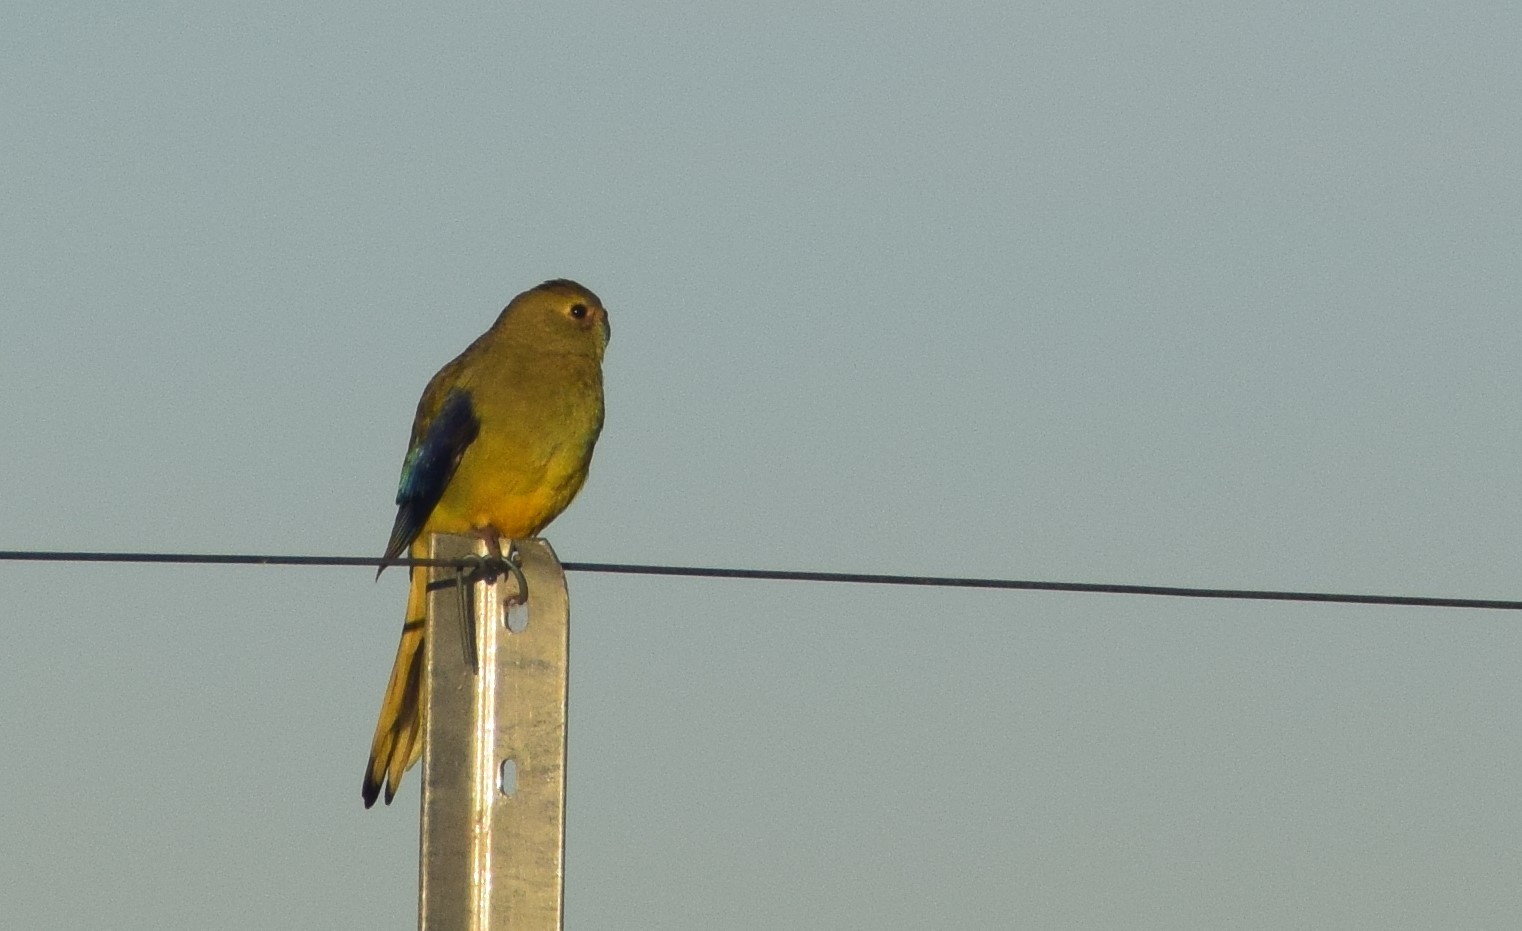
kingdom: Animalia
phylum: Chordata
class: Aves
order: Psittaciformes
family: Psittacidae
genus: Neophema
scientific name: Neophema chrysostoma
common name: Blue-winged parrot
